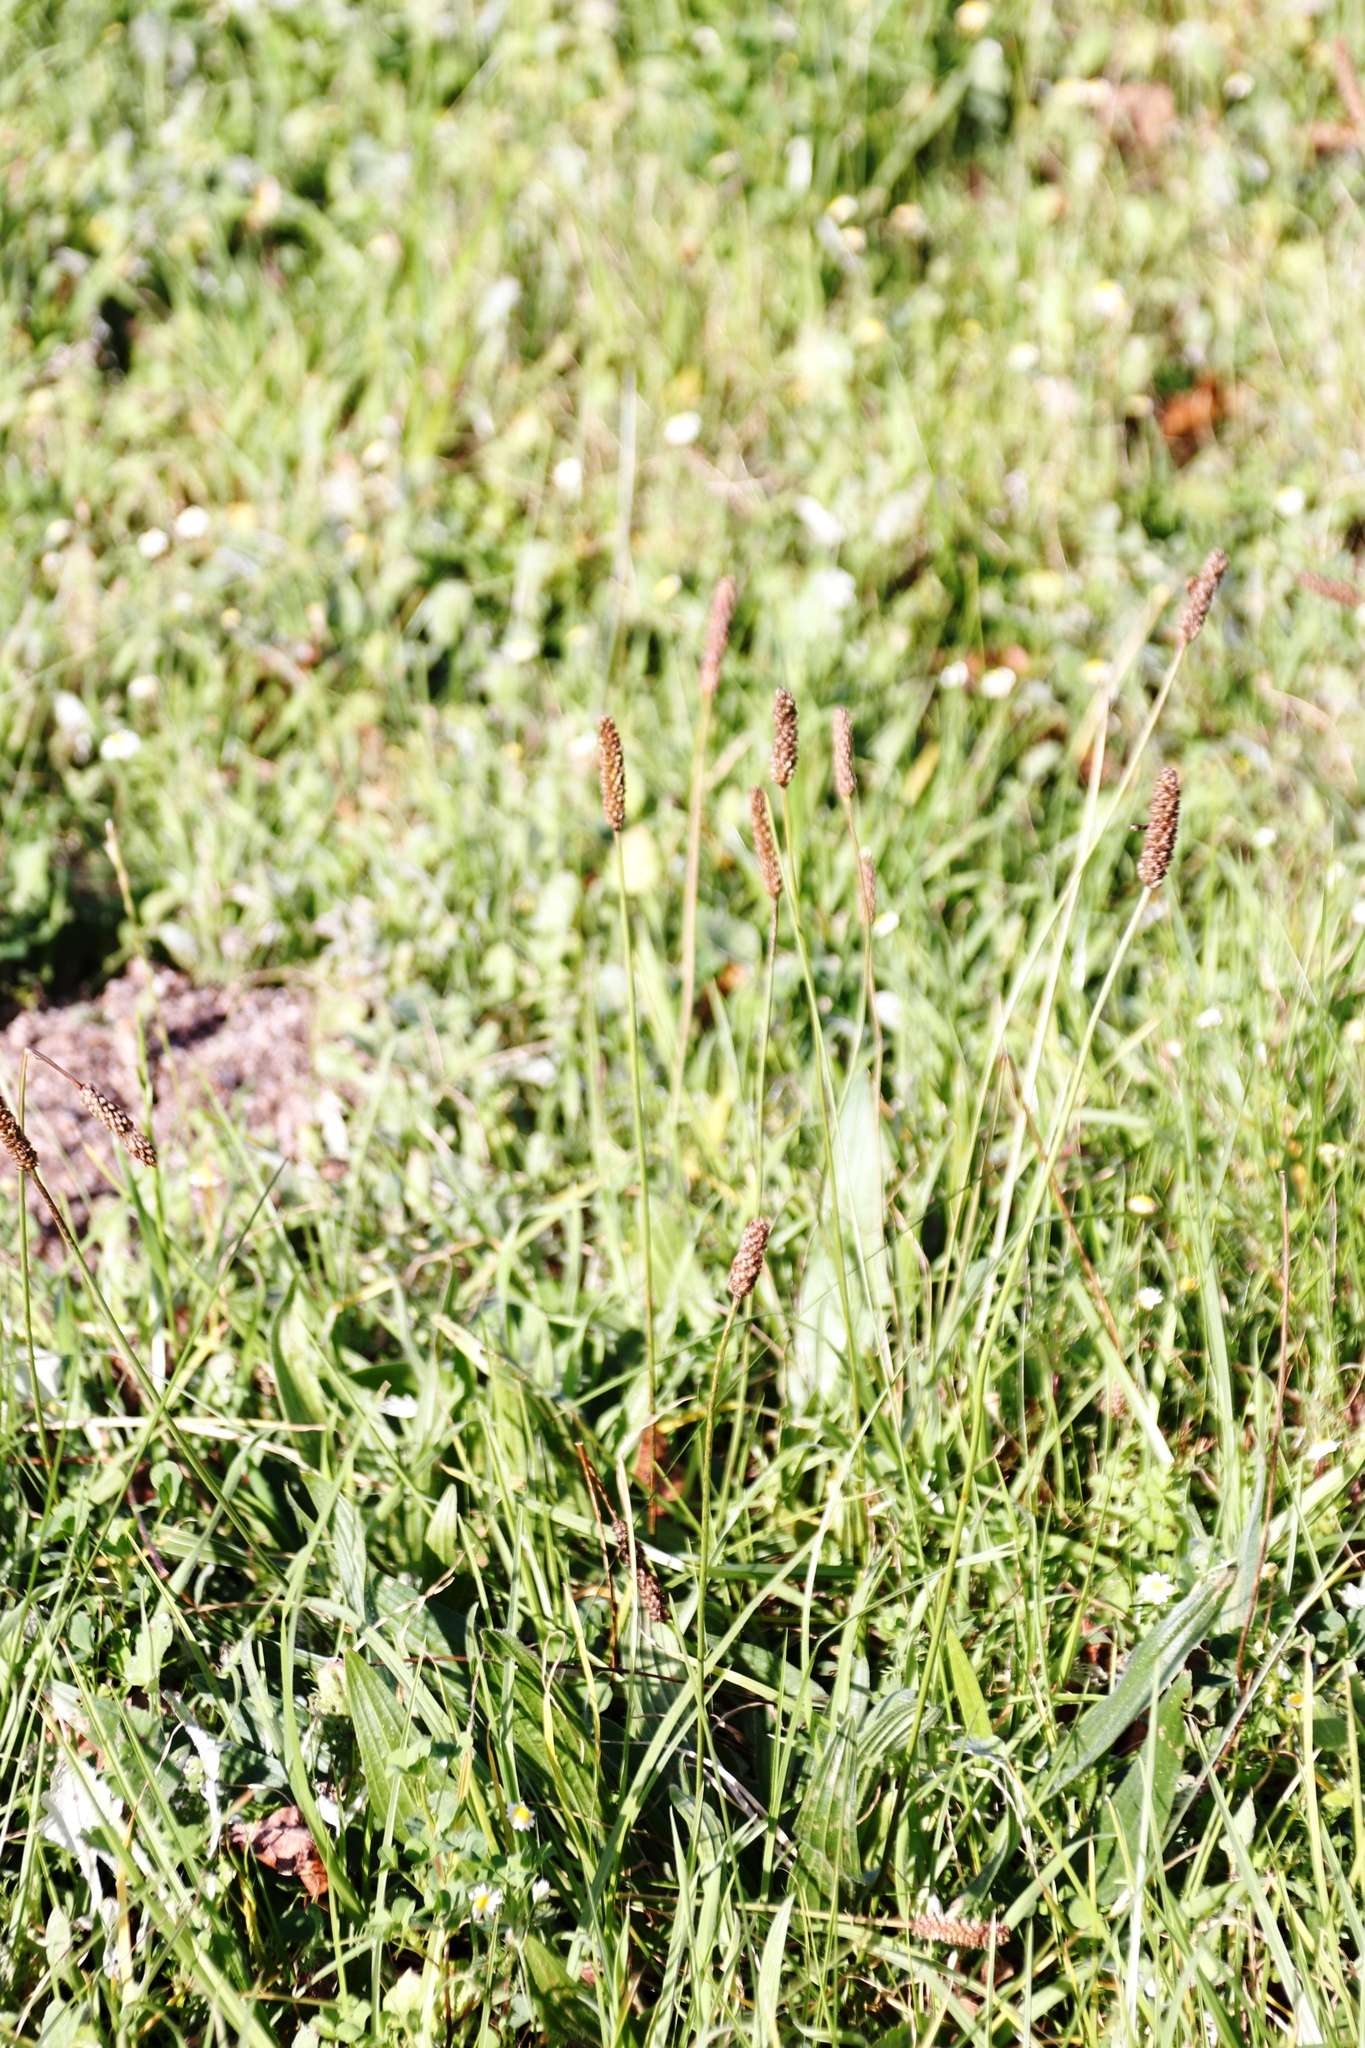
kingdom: Plantae
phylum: Tracheophyta
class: Magnoliopsida
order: Lamiales
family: Plantaginaceae
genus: Plantago
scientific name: Plantago lanceolata
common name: Ribwort plantain
